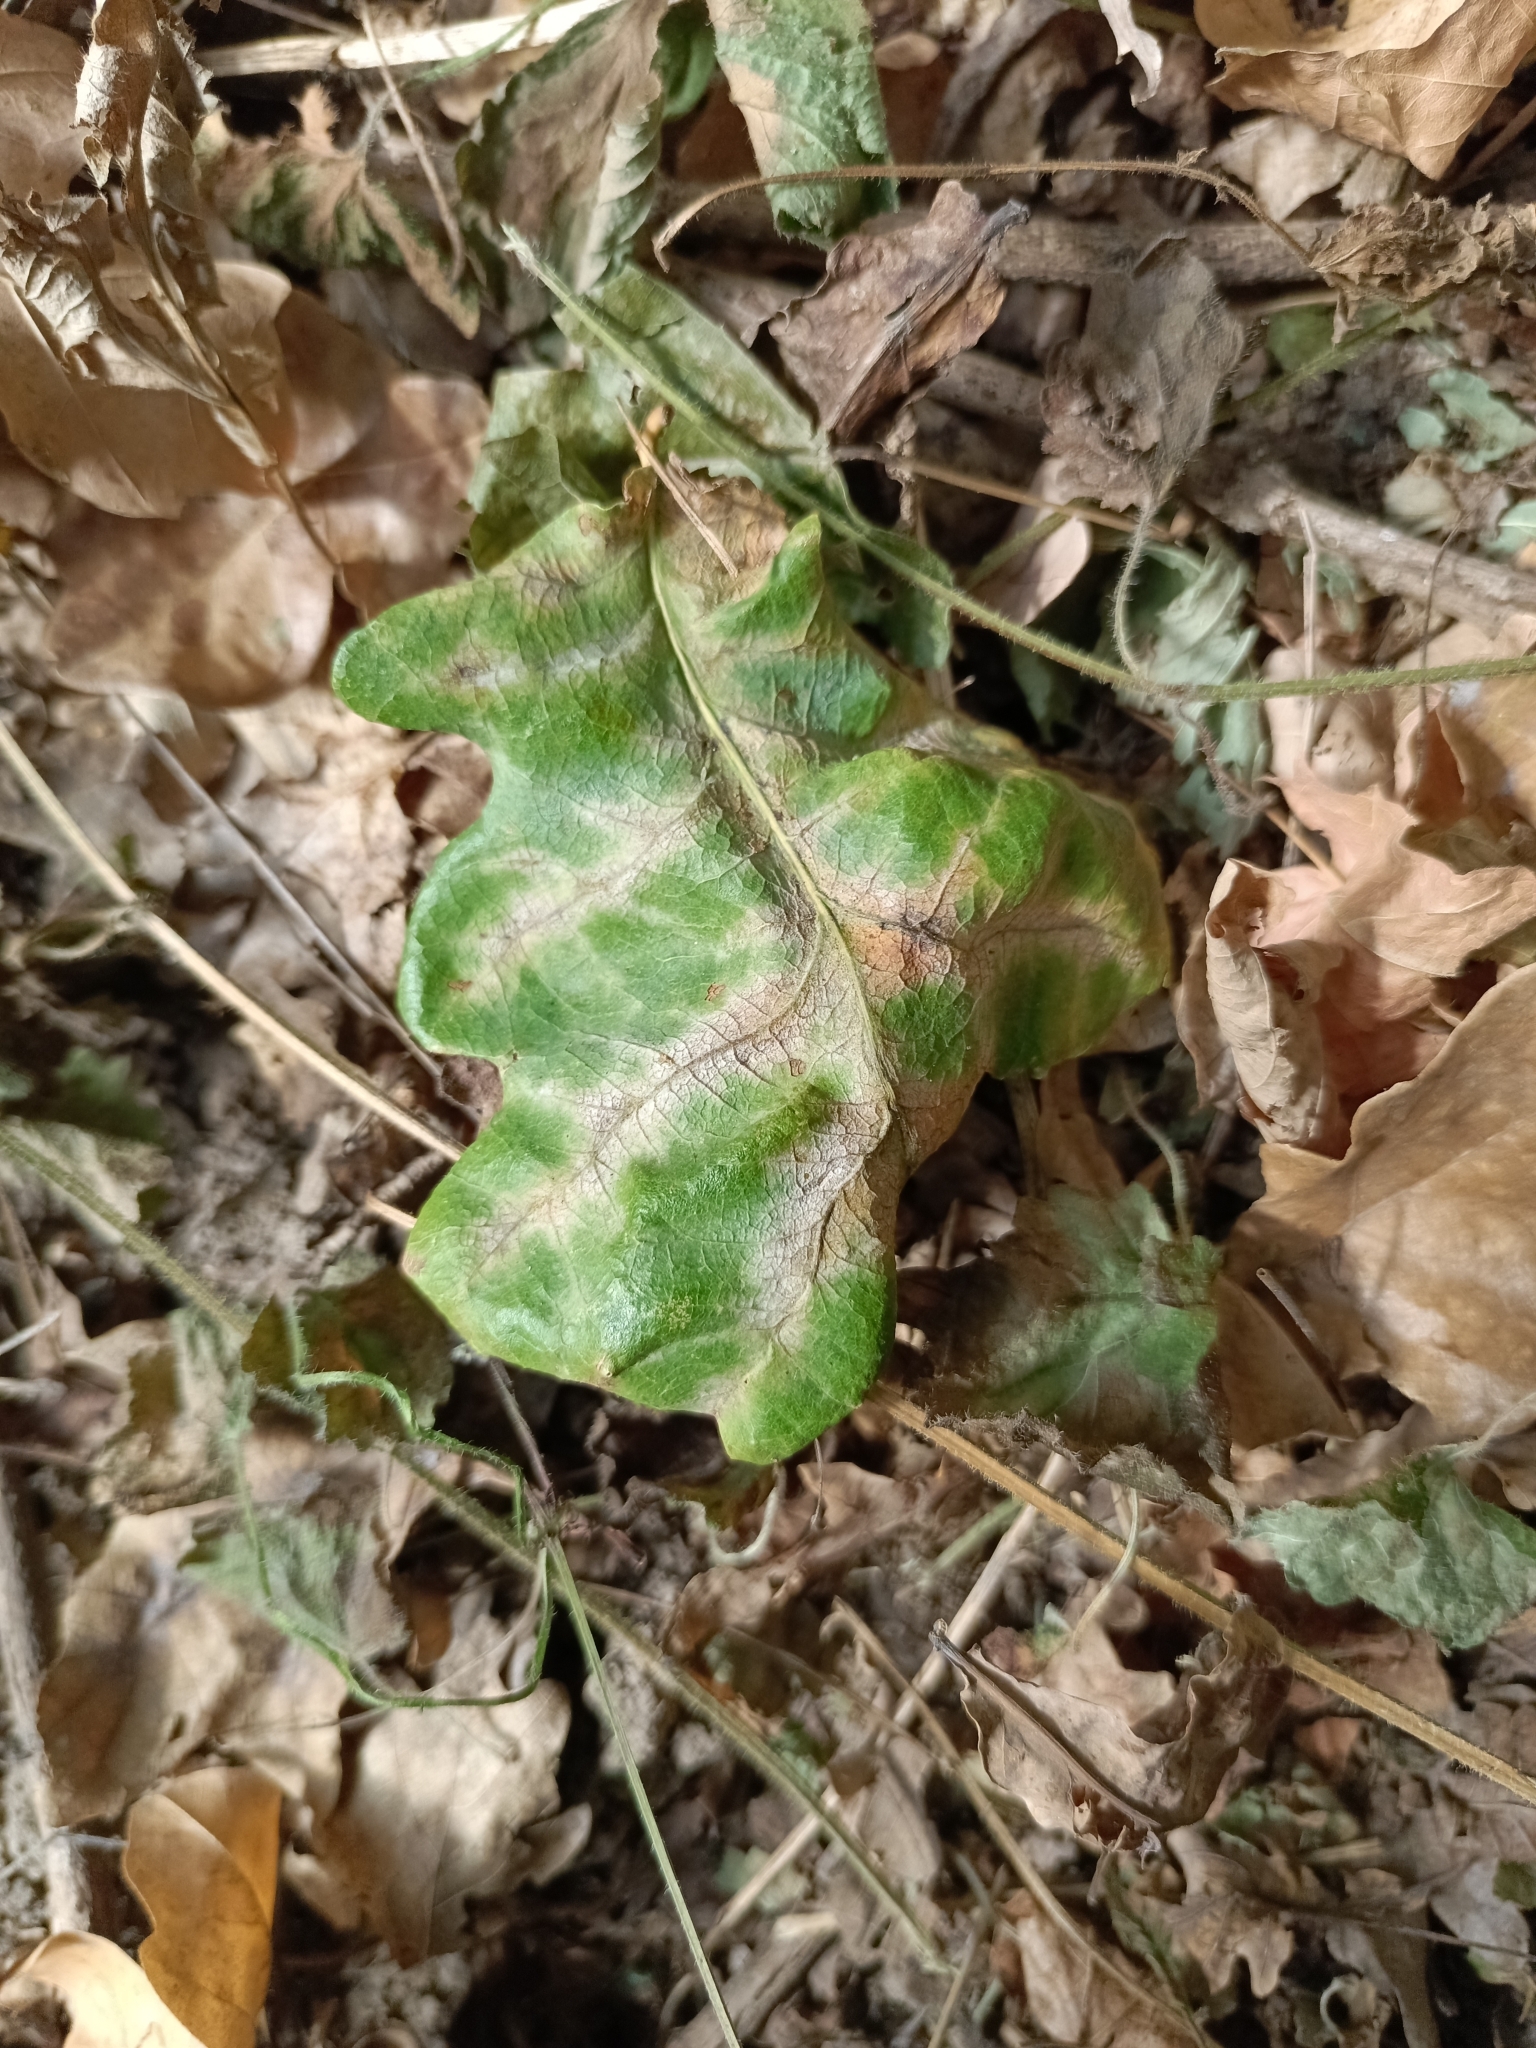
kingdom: Fungi
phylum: Ascomycota
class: Leotiomycetes
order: Helotiales
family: Erysiphaceae
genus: Erysiphe
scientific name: Erysiphe alphitoides
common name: Oak mildew
